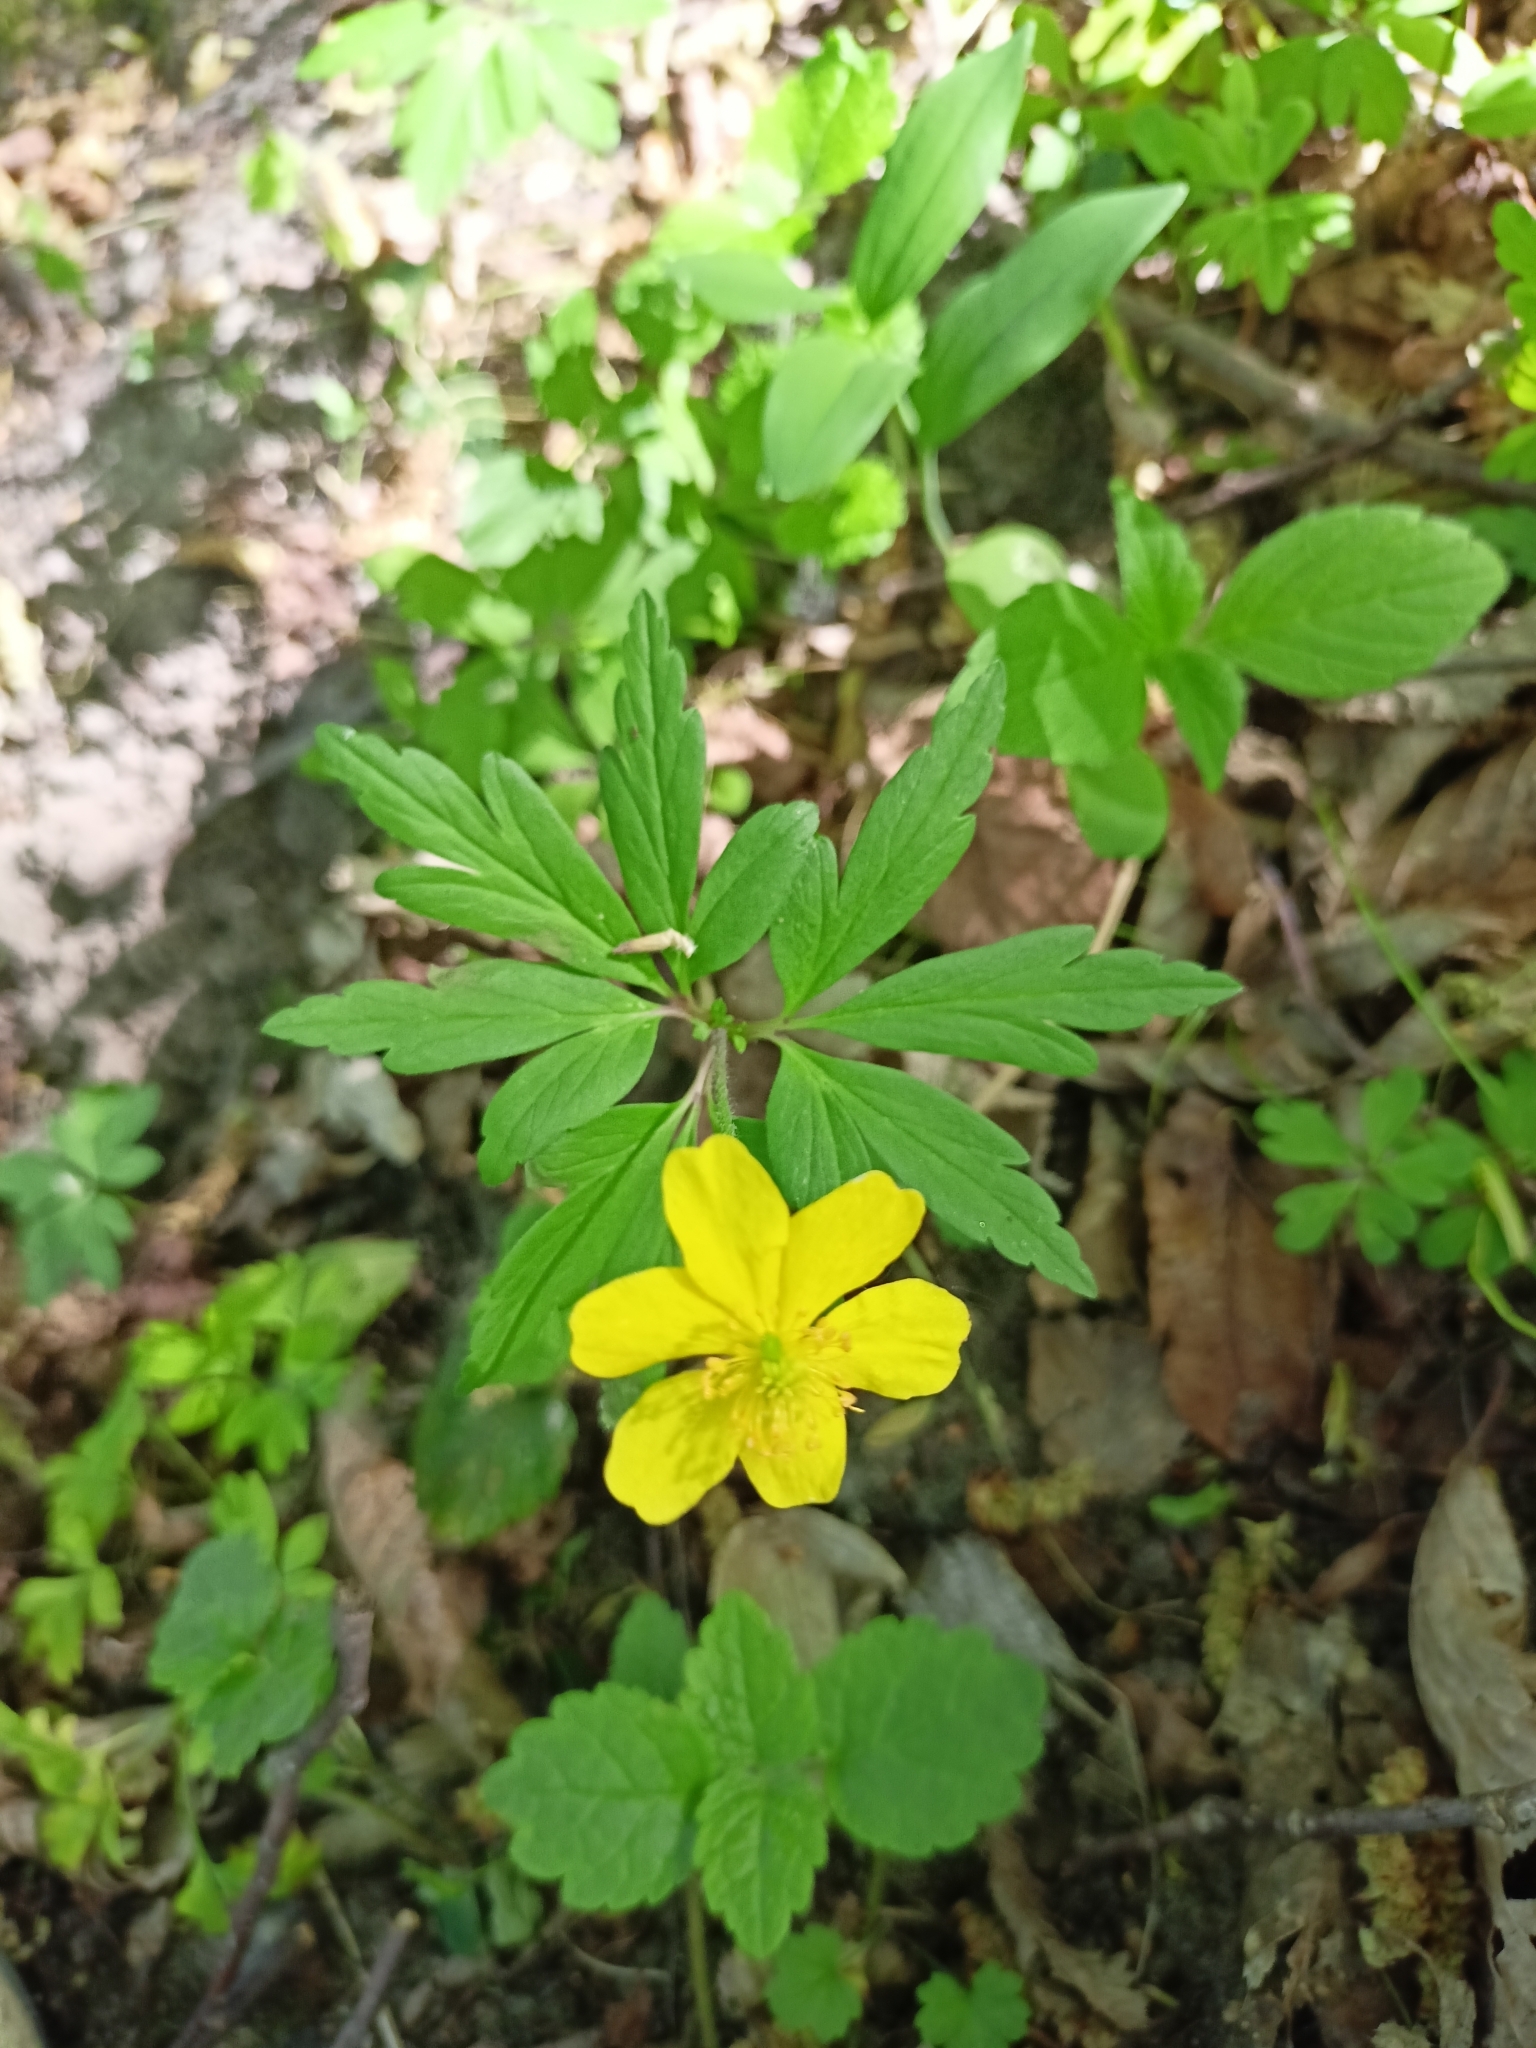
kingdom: Plantae
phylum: Tracheophyta
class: Magnoliopsida
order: Ranunculales
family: Ranunculaceae
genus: Anemone
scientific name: Anemone ranunculoides
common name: Yellow anemone
